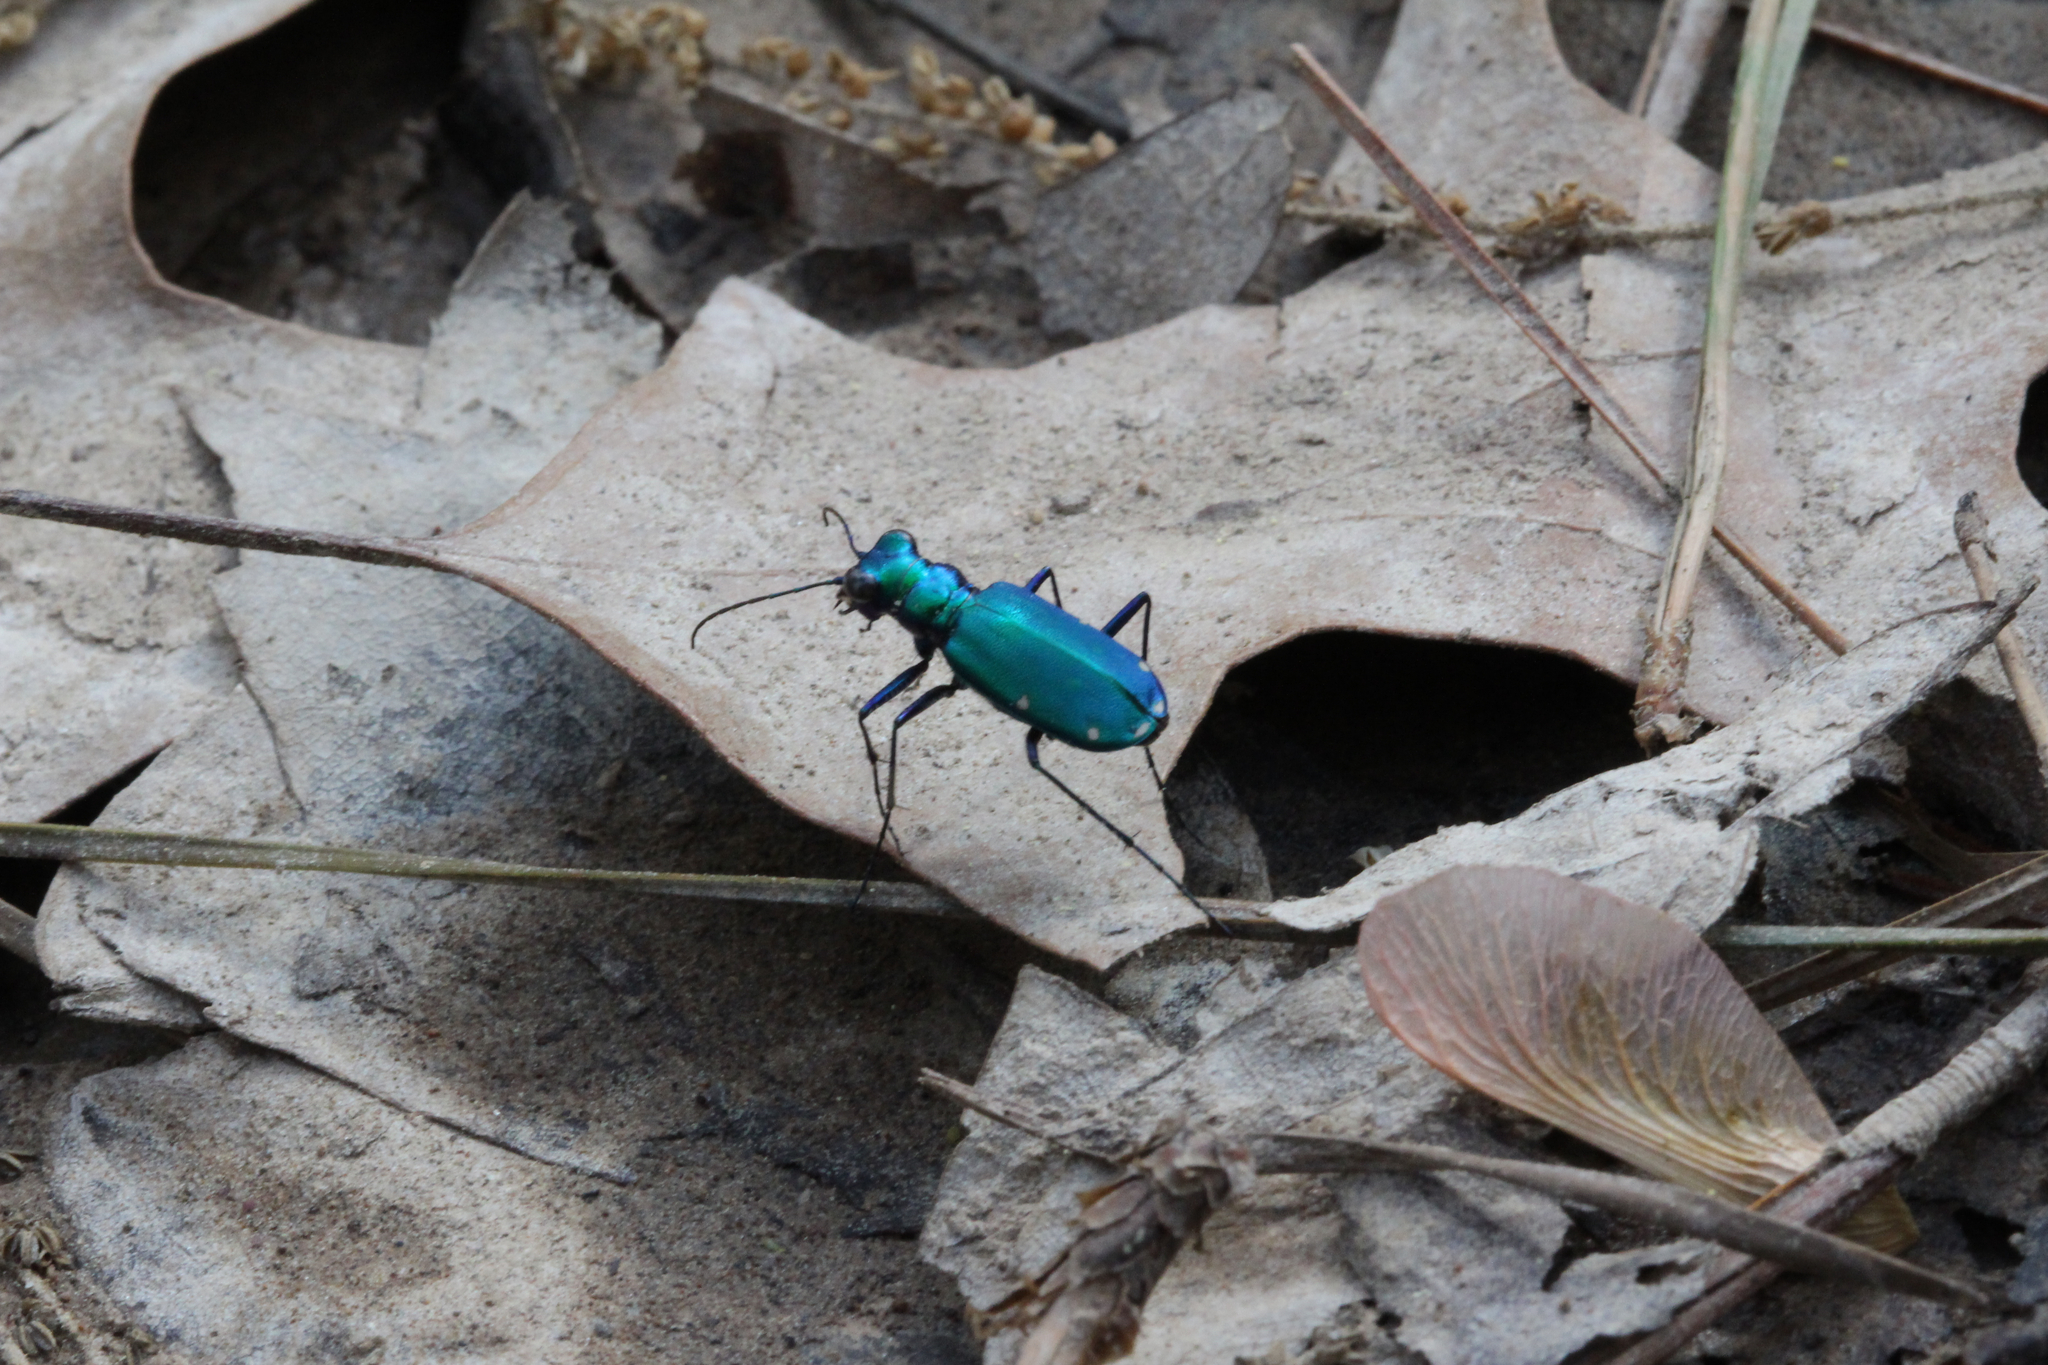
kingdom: Animalia
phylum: Arthropoda
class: Insecta
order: Coleoptera
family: Carabidae
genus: Cicindela
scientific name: Cicindela sexguttata
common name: Six-spotted tiger beetle
